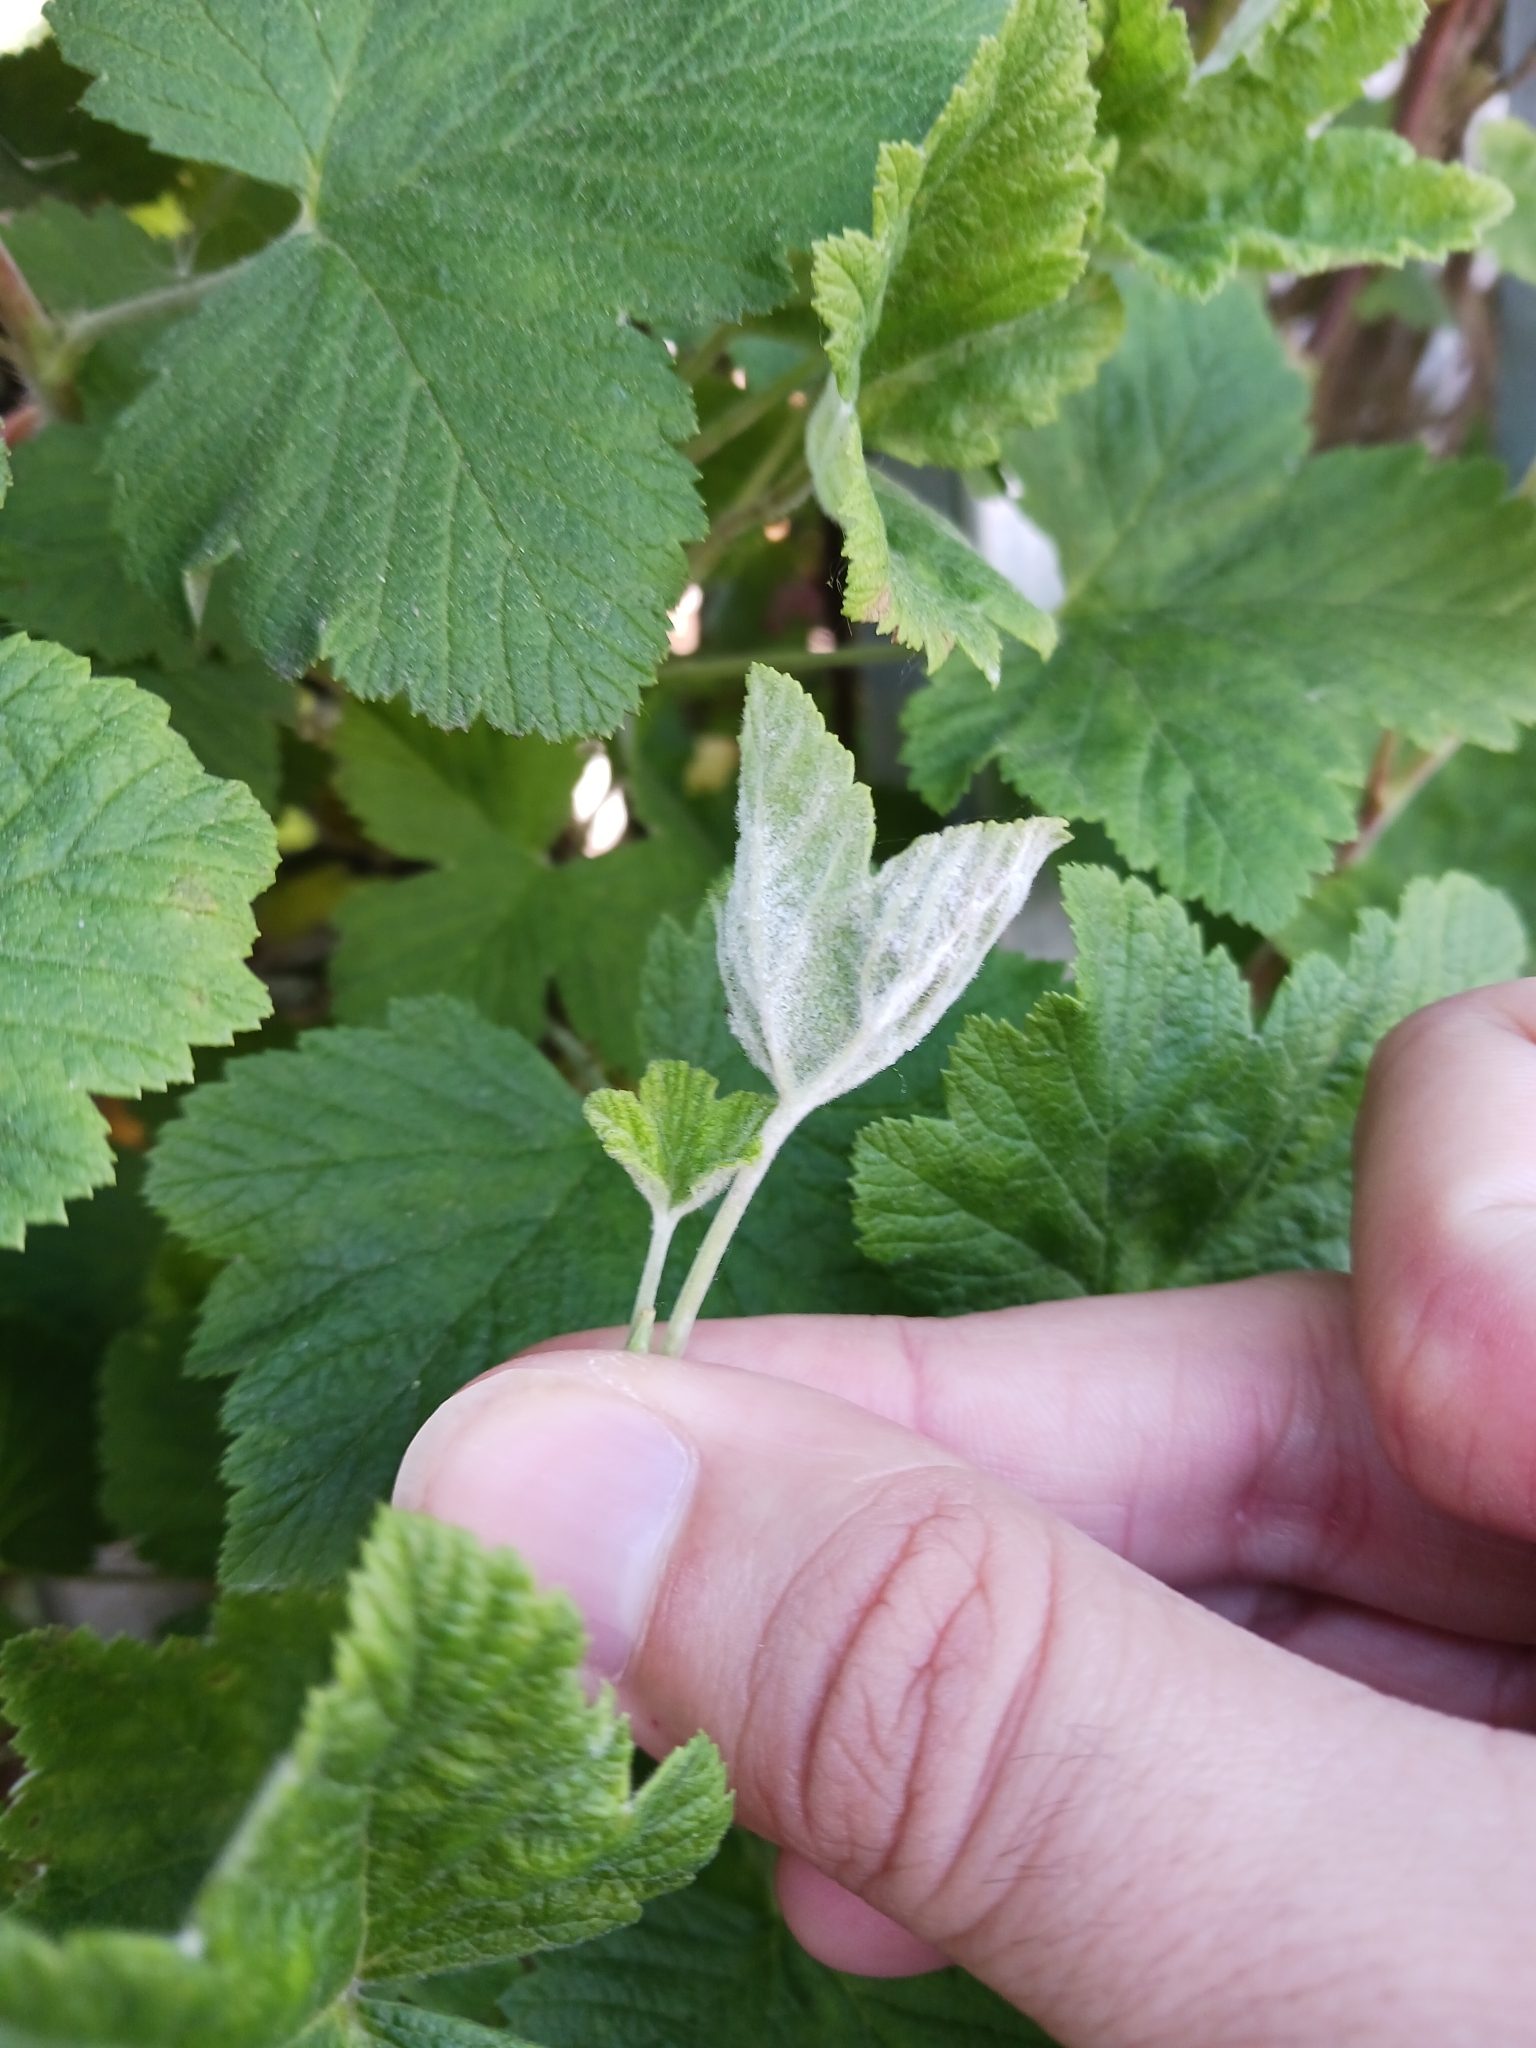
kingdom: Fungi
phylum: Ascomycota
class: Leotiomycetes
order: Helotiales
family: Erysiphaceae
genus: Podosphaera
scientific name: Podosphaera mors-uvae
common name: American gooseberry mildew
